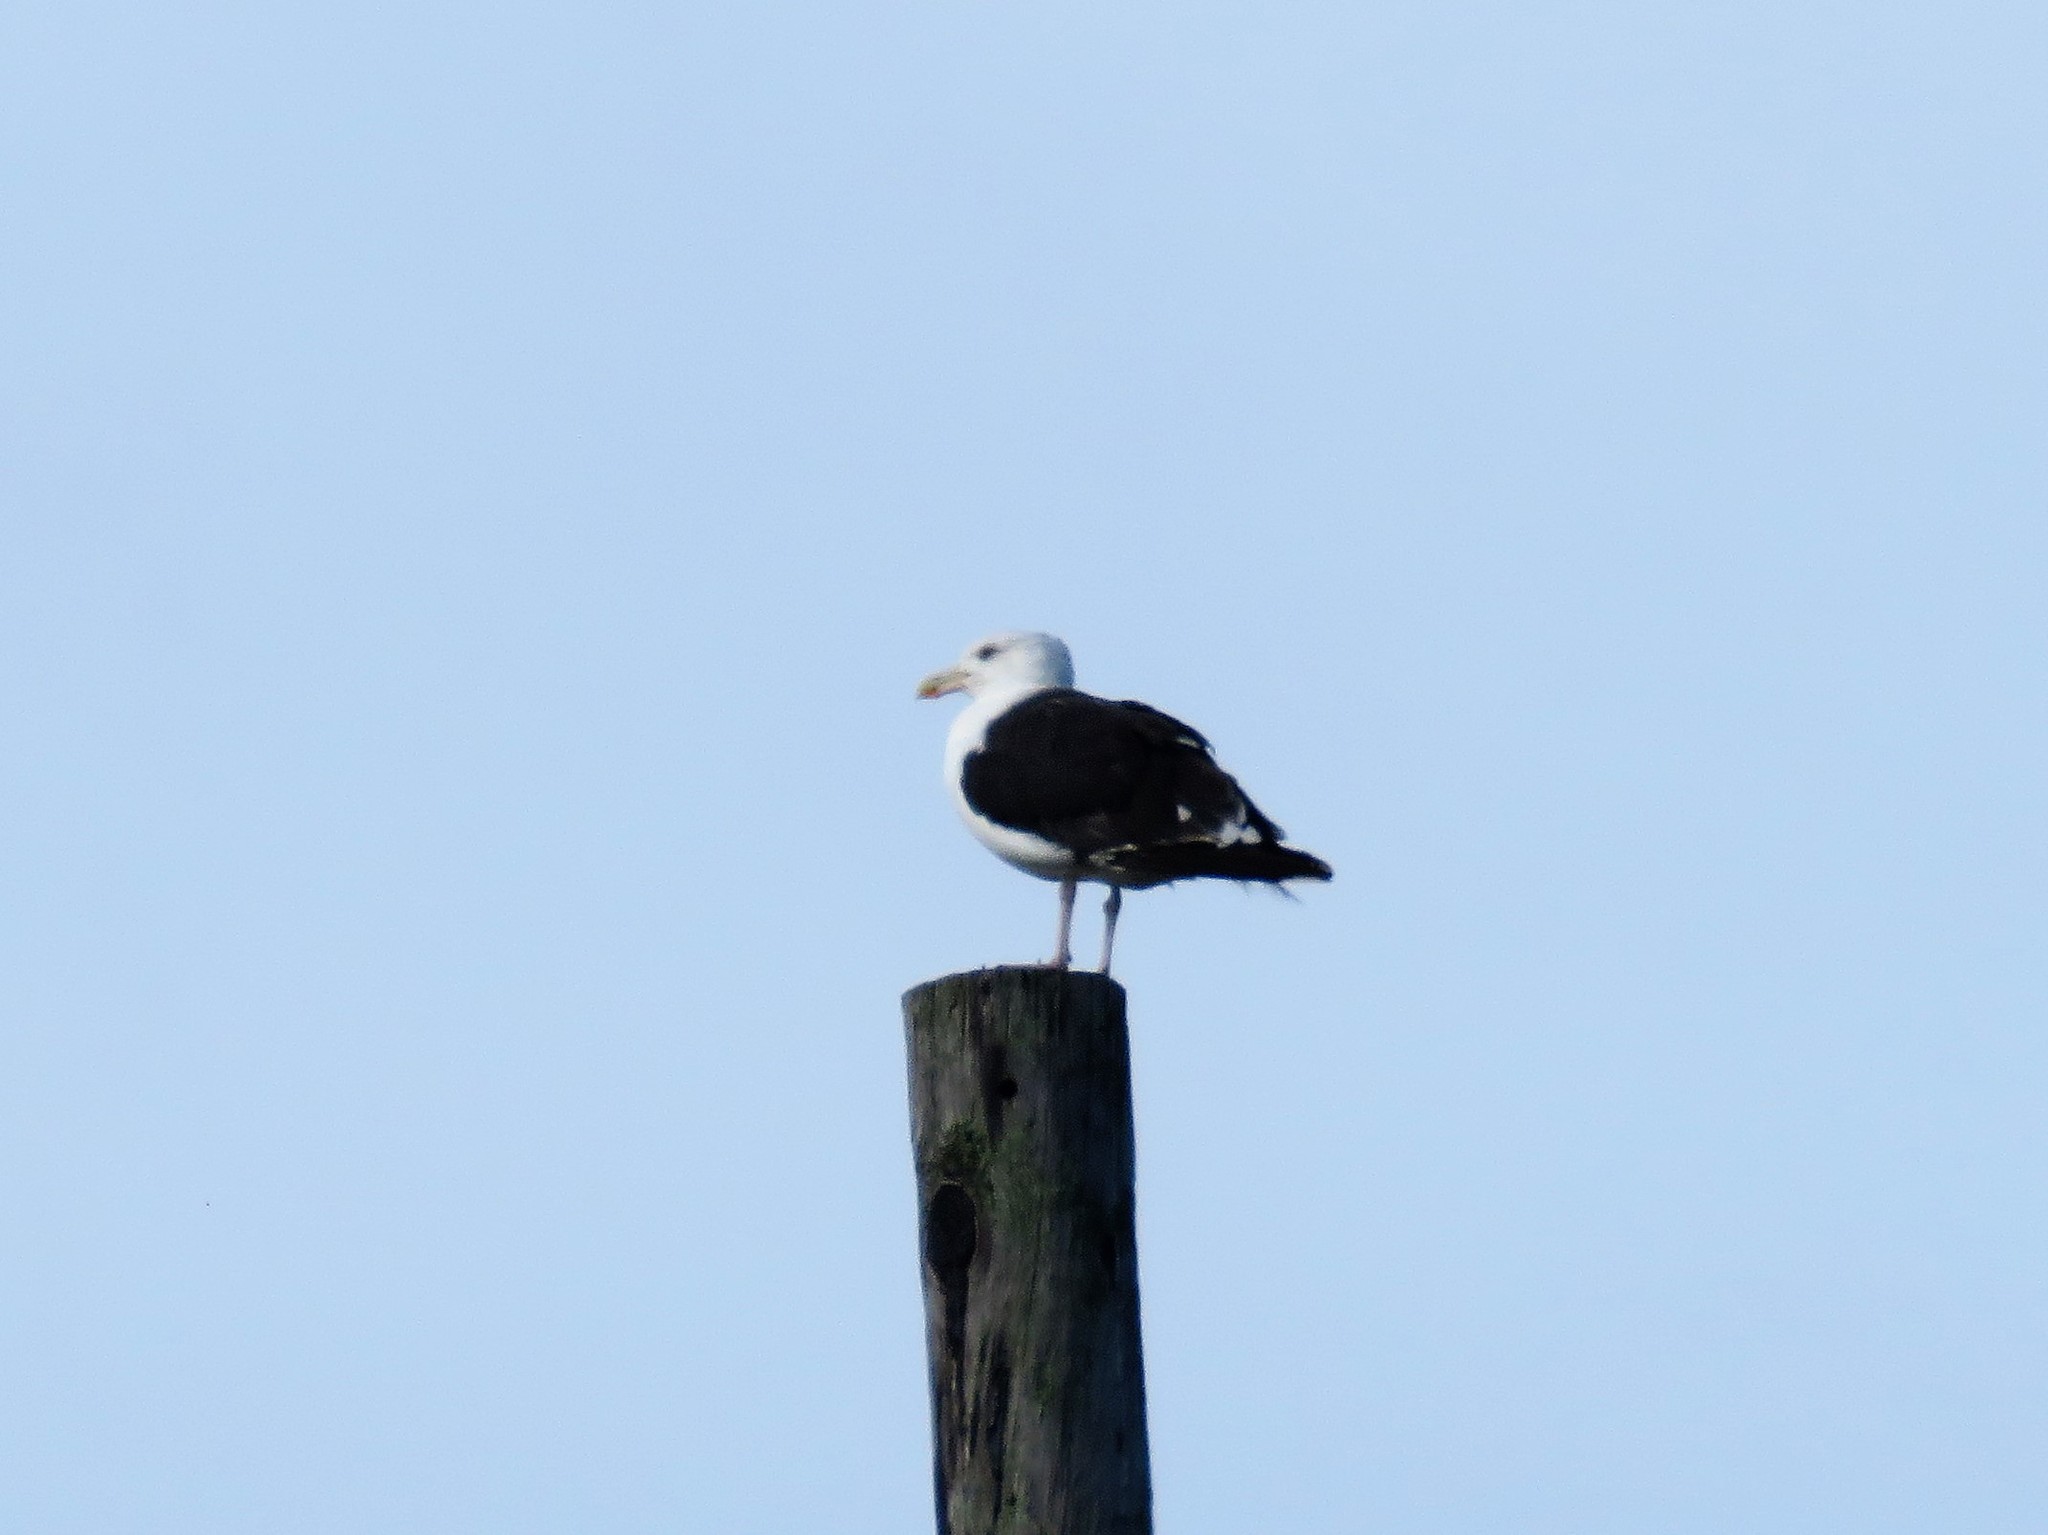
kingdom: Animalia
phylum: Chordata
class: Aves
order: Charadriiformes
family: Laridae
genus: Larus
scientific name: Larus marinus
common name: Great black-backed gull
